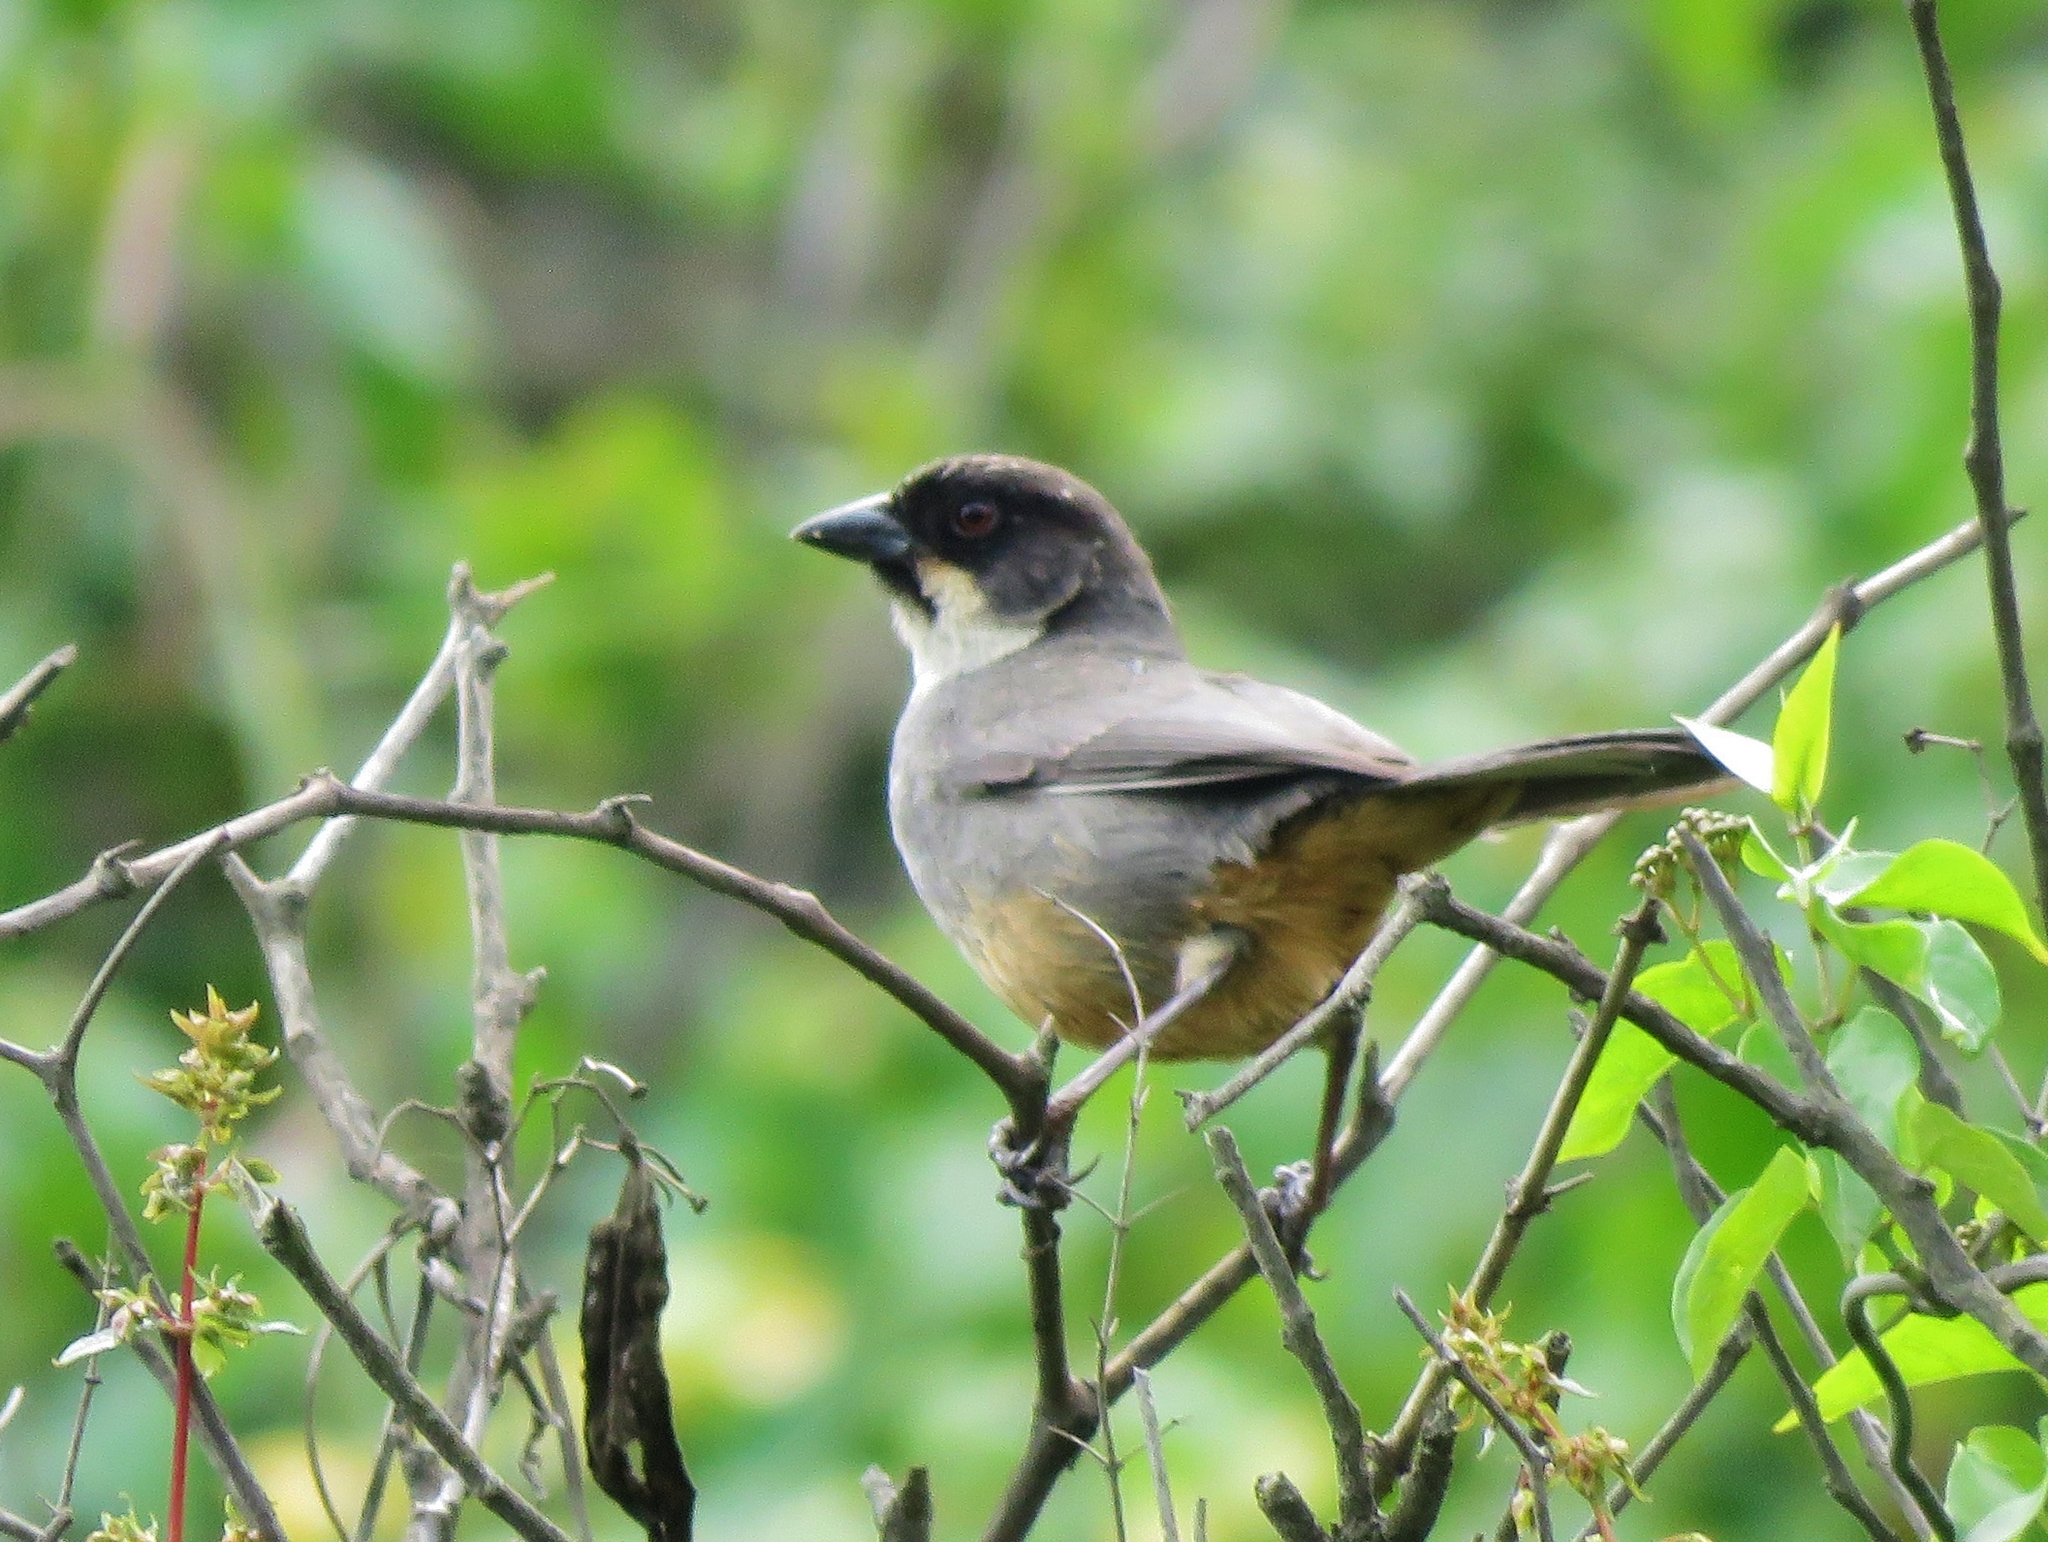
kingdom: Animalia
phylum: Chordata
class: Aves
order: Passeriformes
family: Passerellidae
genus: Atlapetes
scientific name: Atlapetes nationi
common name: Rusty-bellied brushfinch
